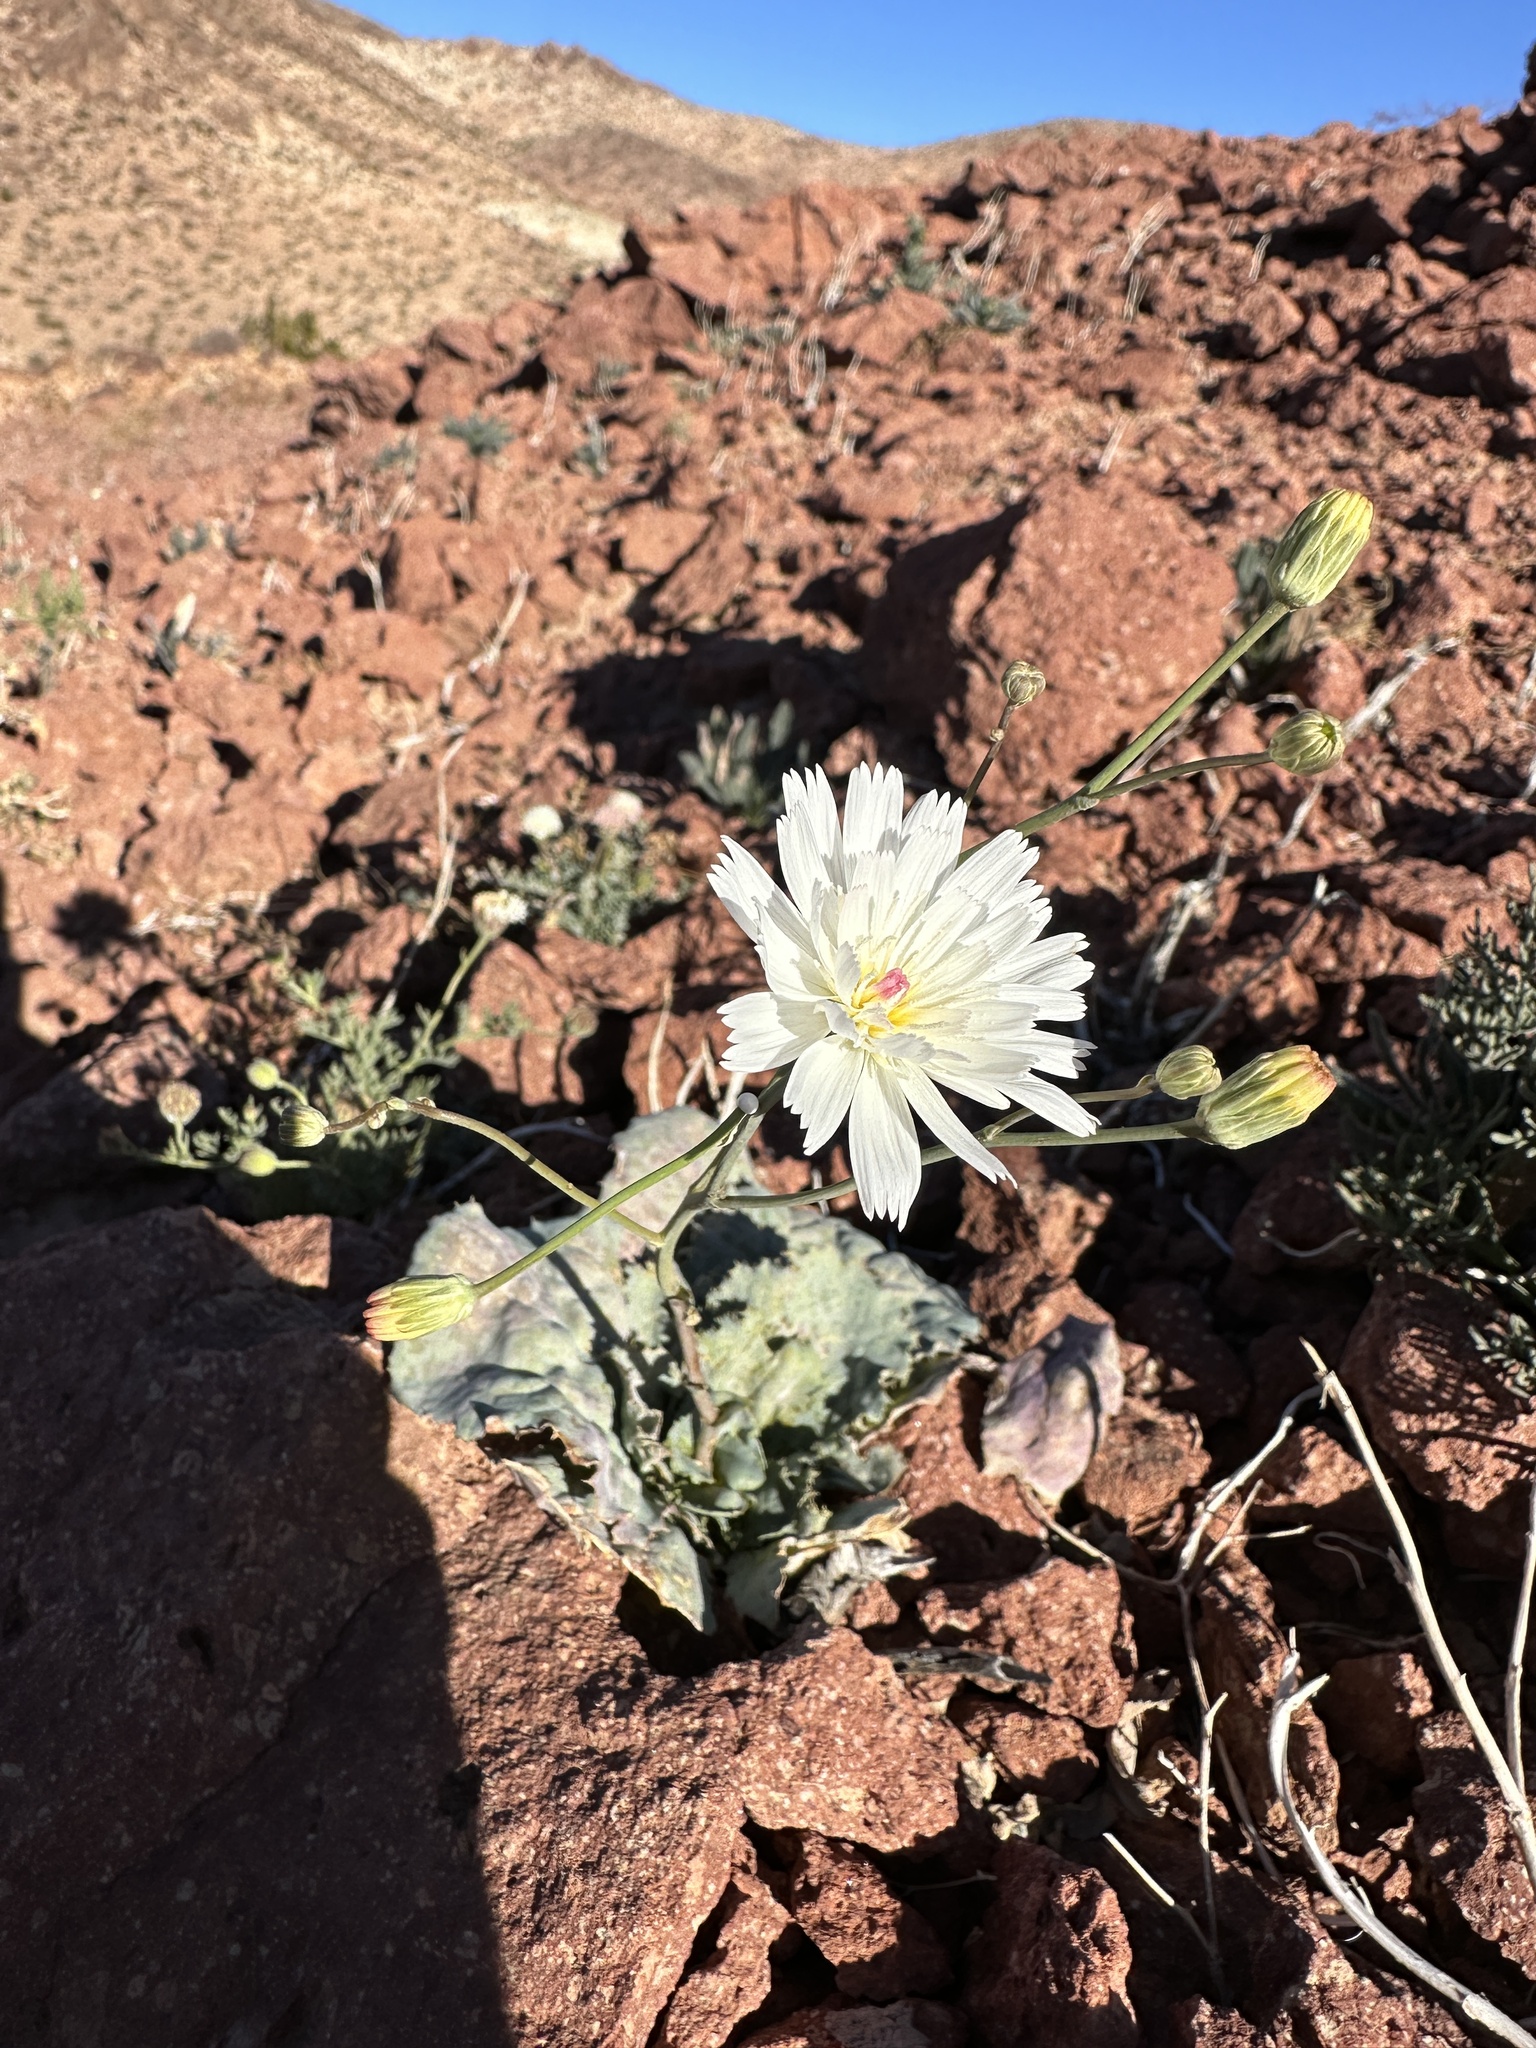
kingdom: Plantae
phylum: Tracheophyta
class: Magnoliopsida
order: Asterales
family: Asteraceae
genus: Atrichoseris
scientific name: Atrichoseris platyphylla
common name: Tobaccoweed
